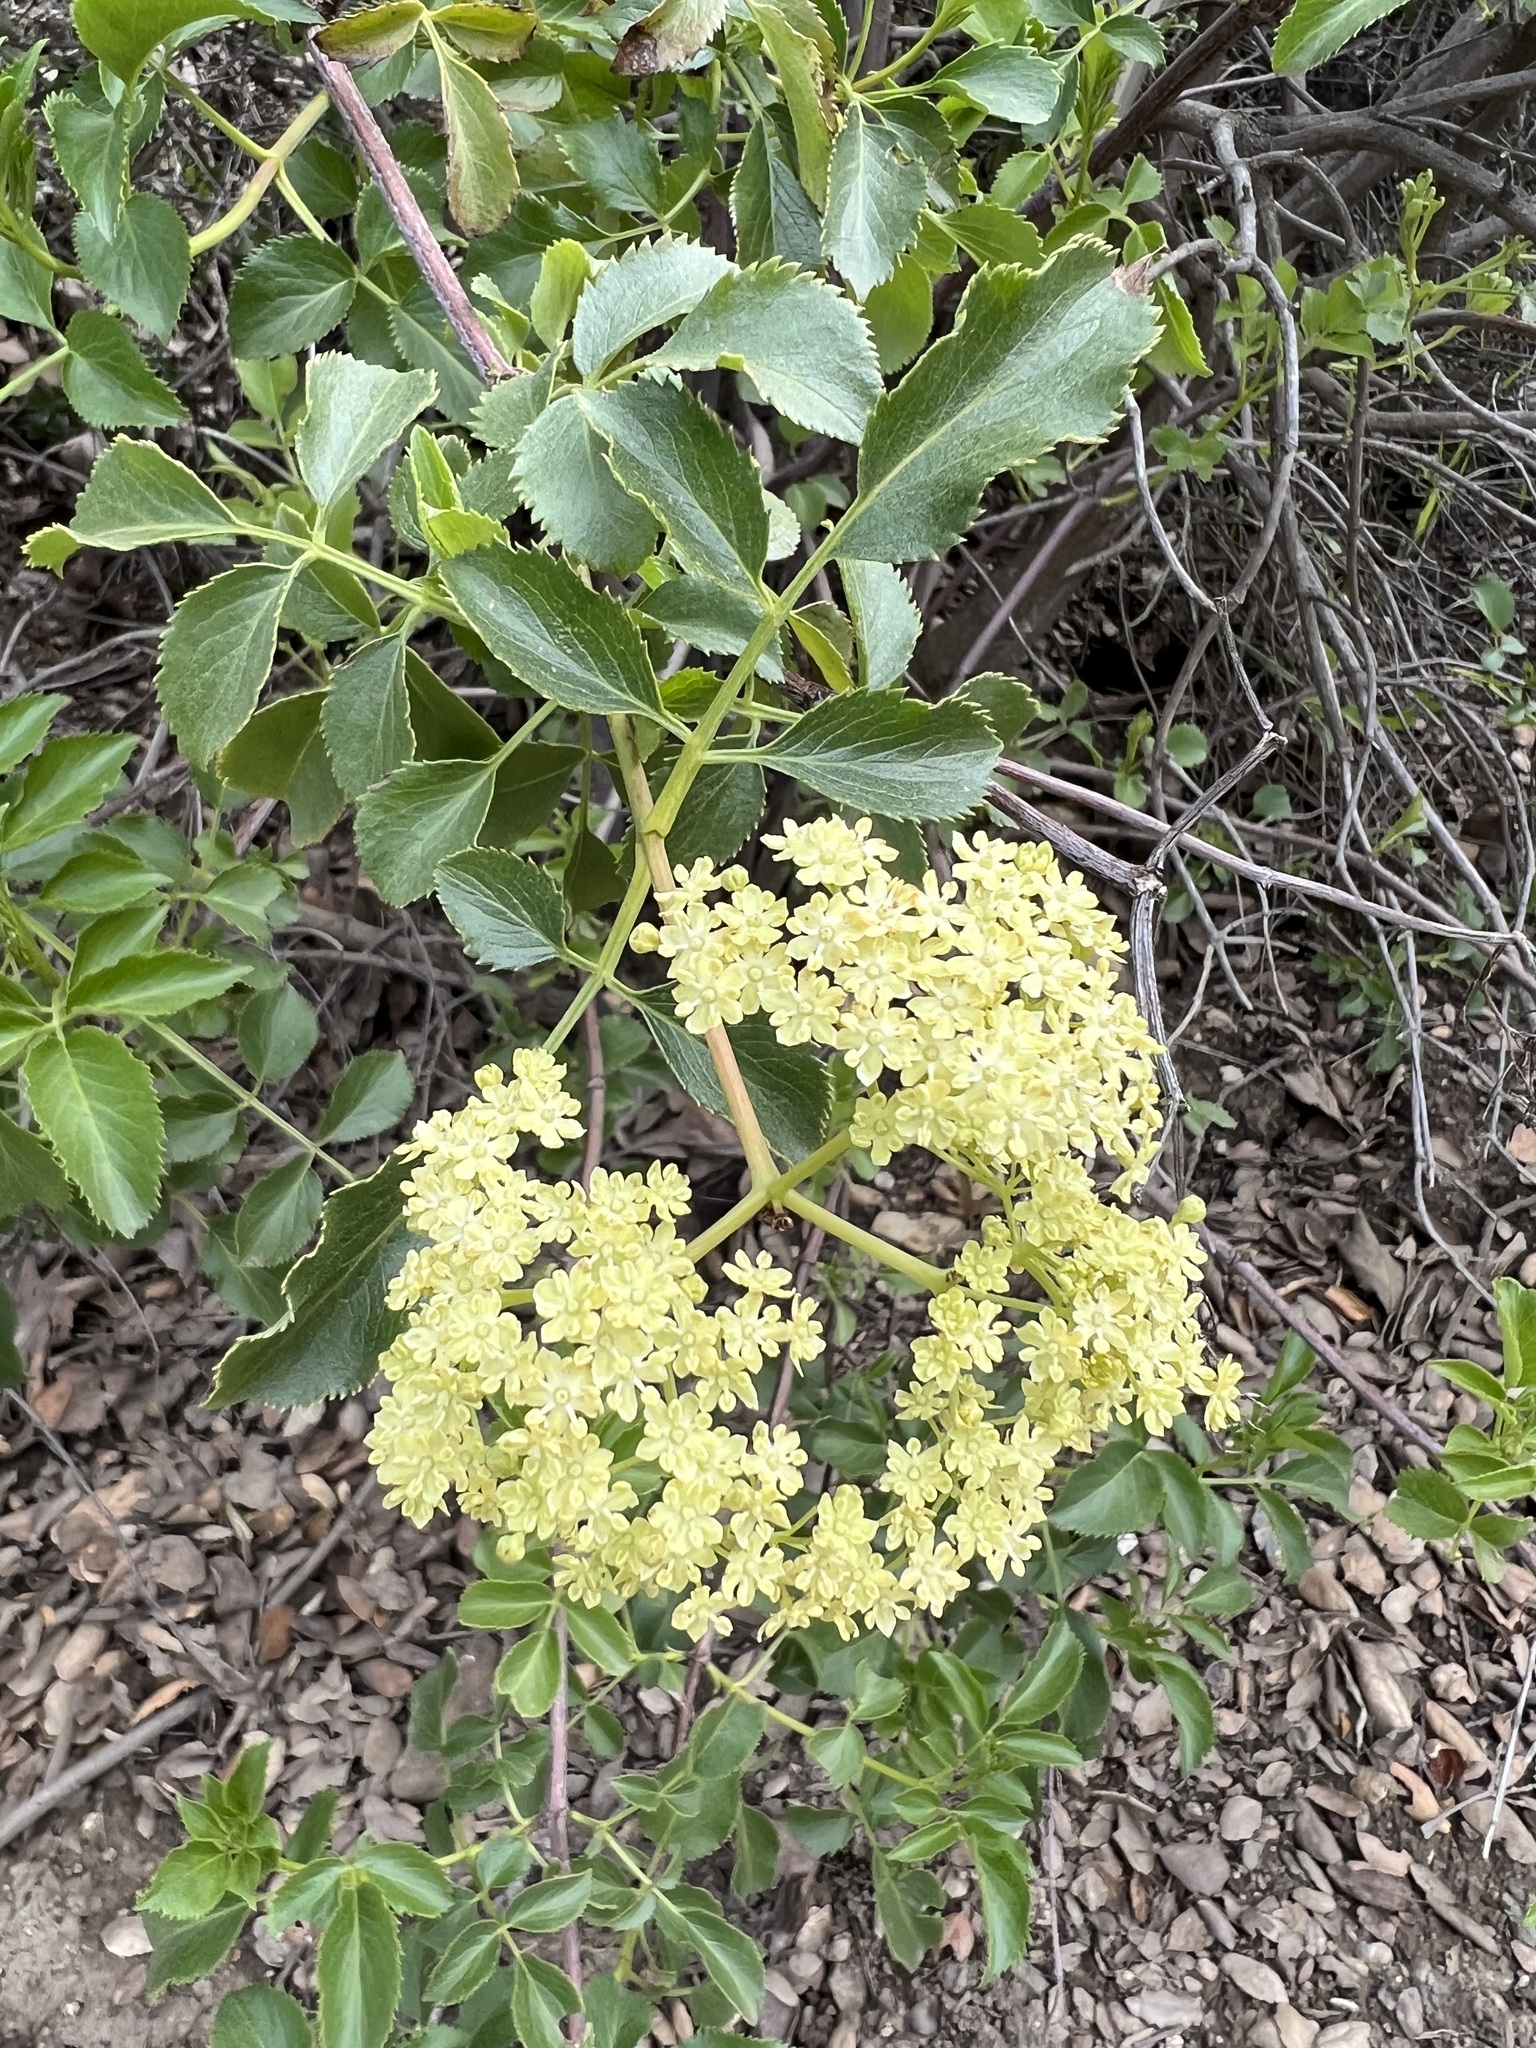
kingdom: Plantae
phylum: Tracheophyta
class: Magnoliopsida
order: Dipsacales
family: Viburnaceae
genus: Sambucus
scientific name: Sambucus cerulea
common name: Blue elder
